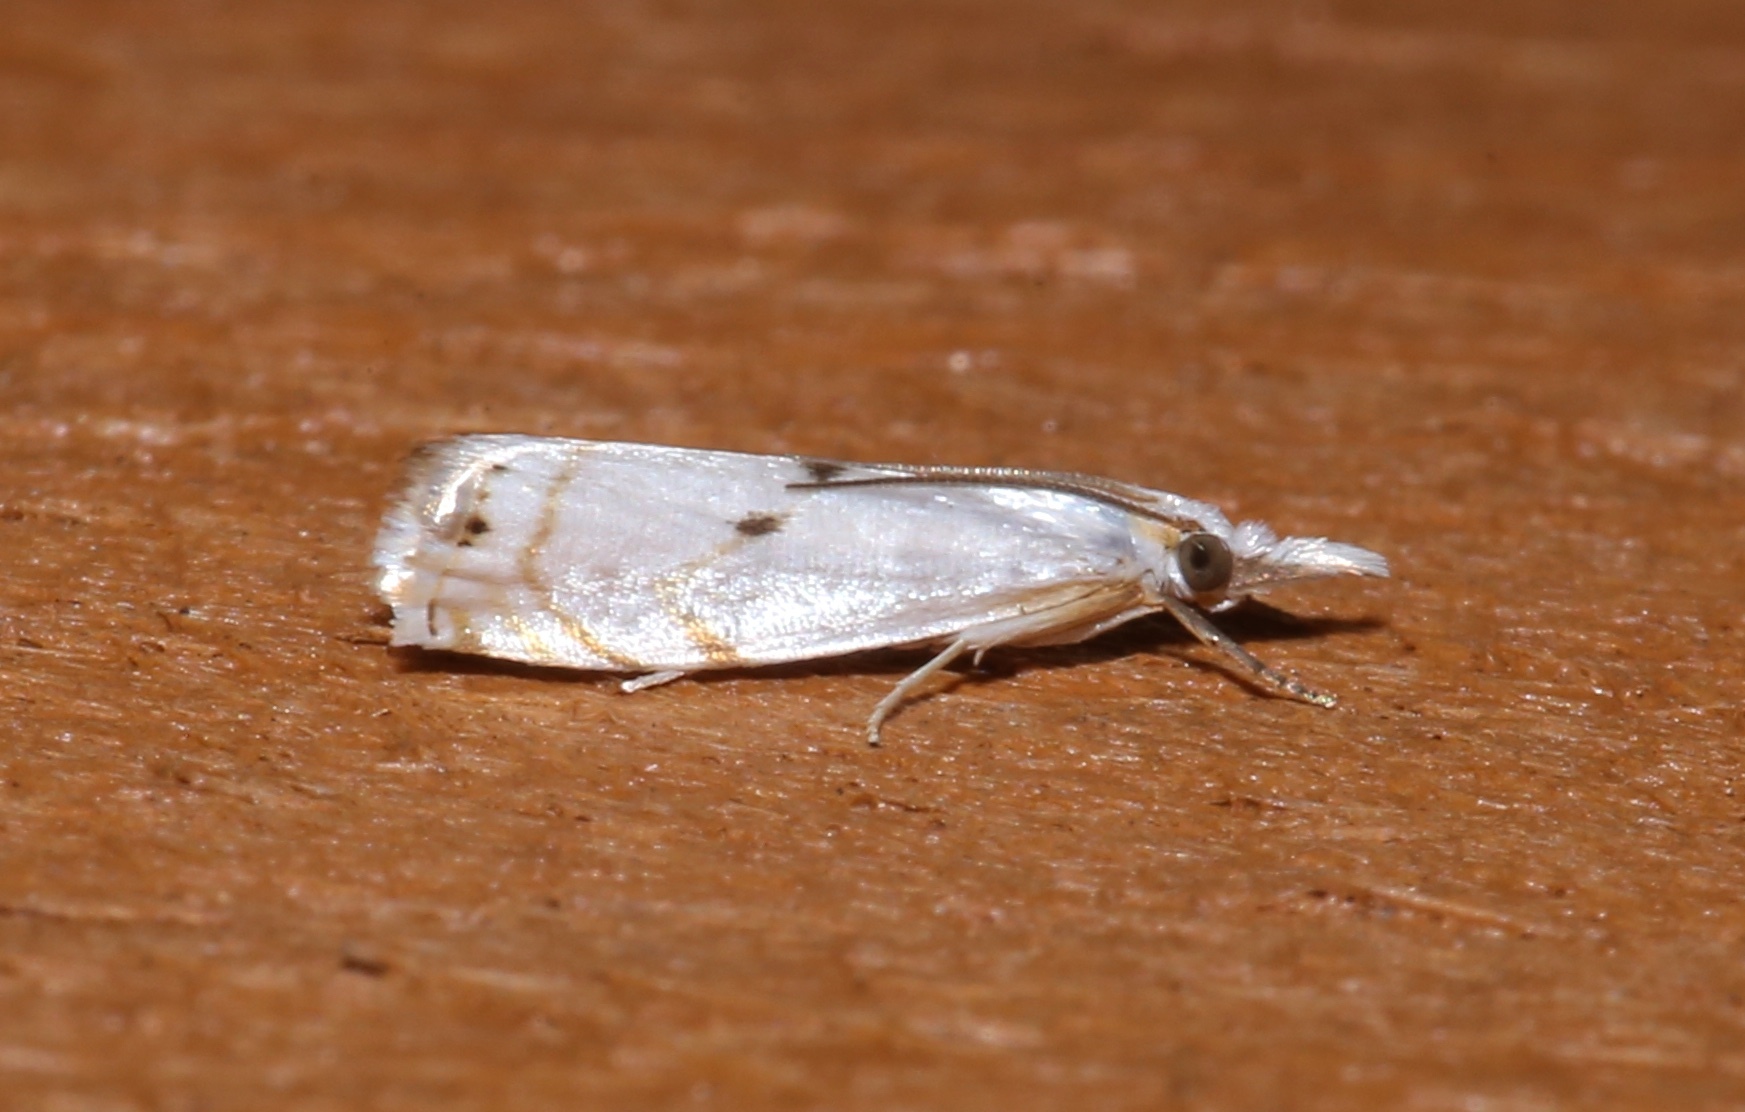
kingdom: Animalia
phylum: Arthropoda
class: Insecta
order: Lepidoptera
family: Crambidae
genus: Microcrambus
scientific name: Microcrambus biguttellus
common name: Gold-stripe grass-veneer moth
